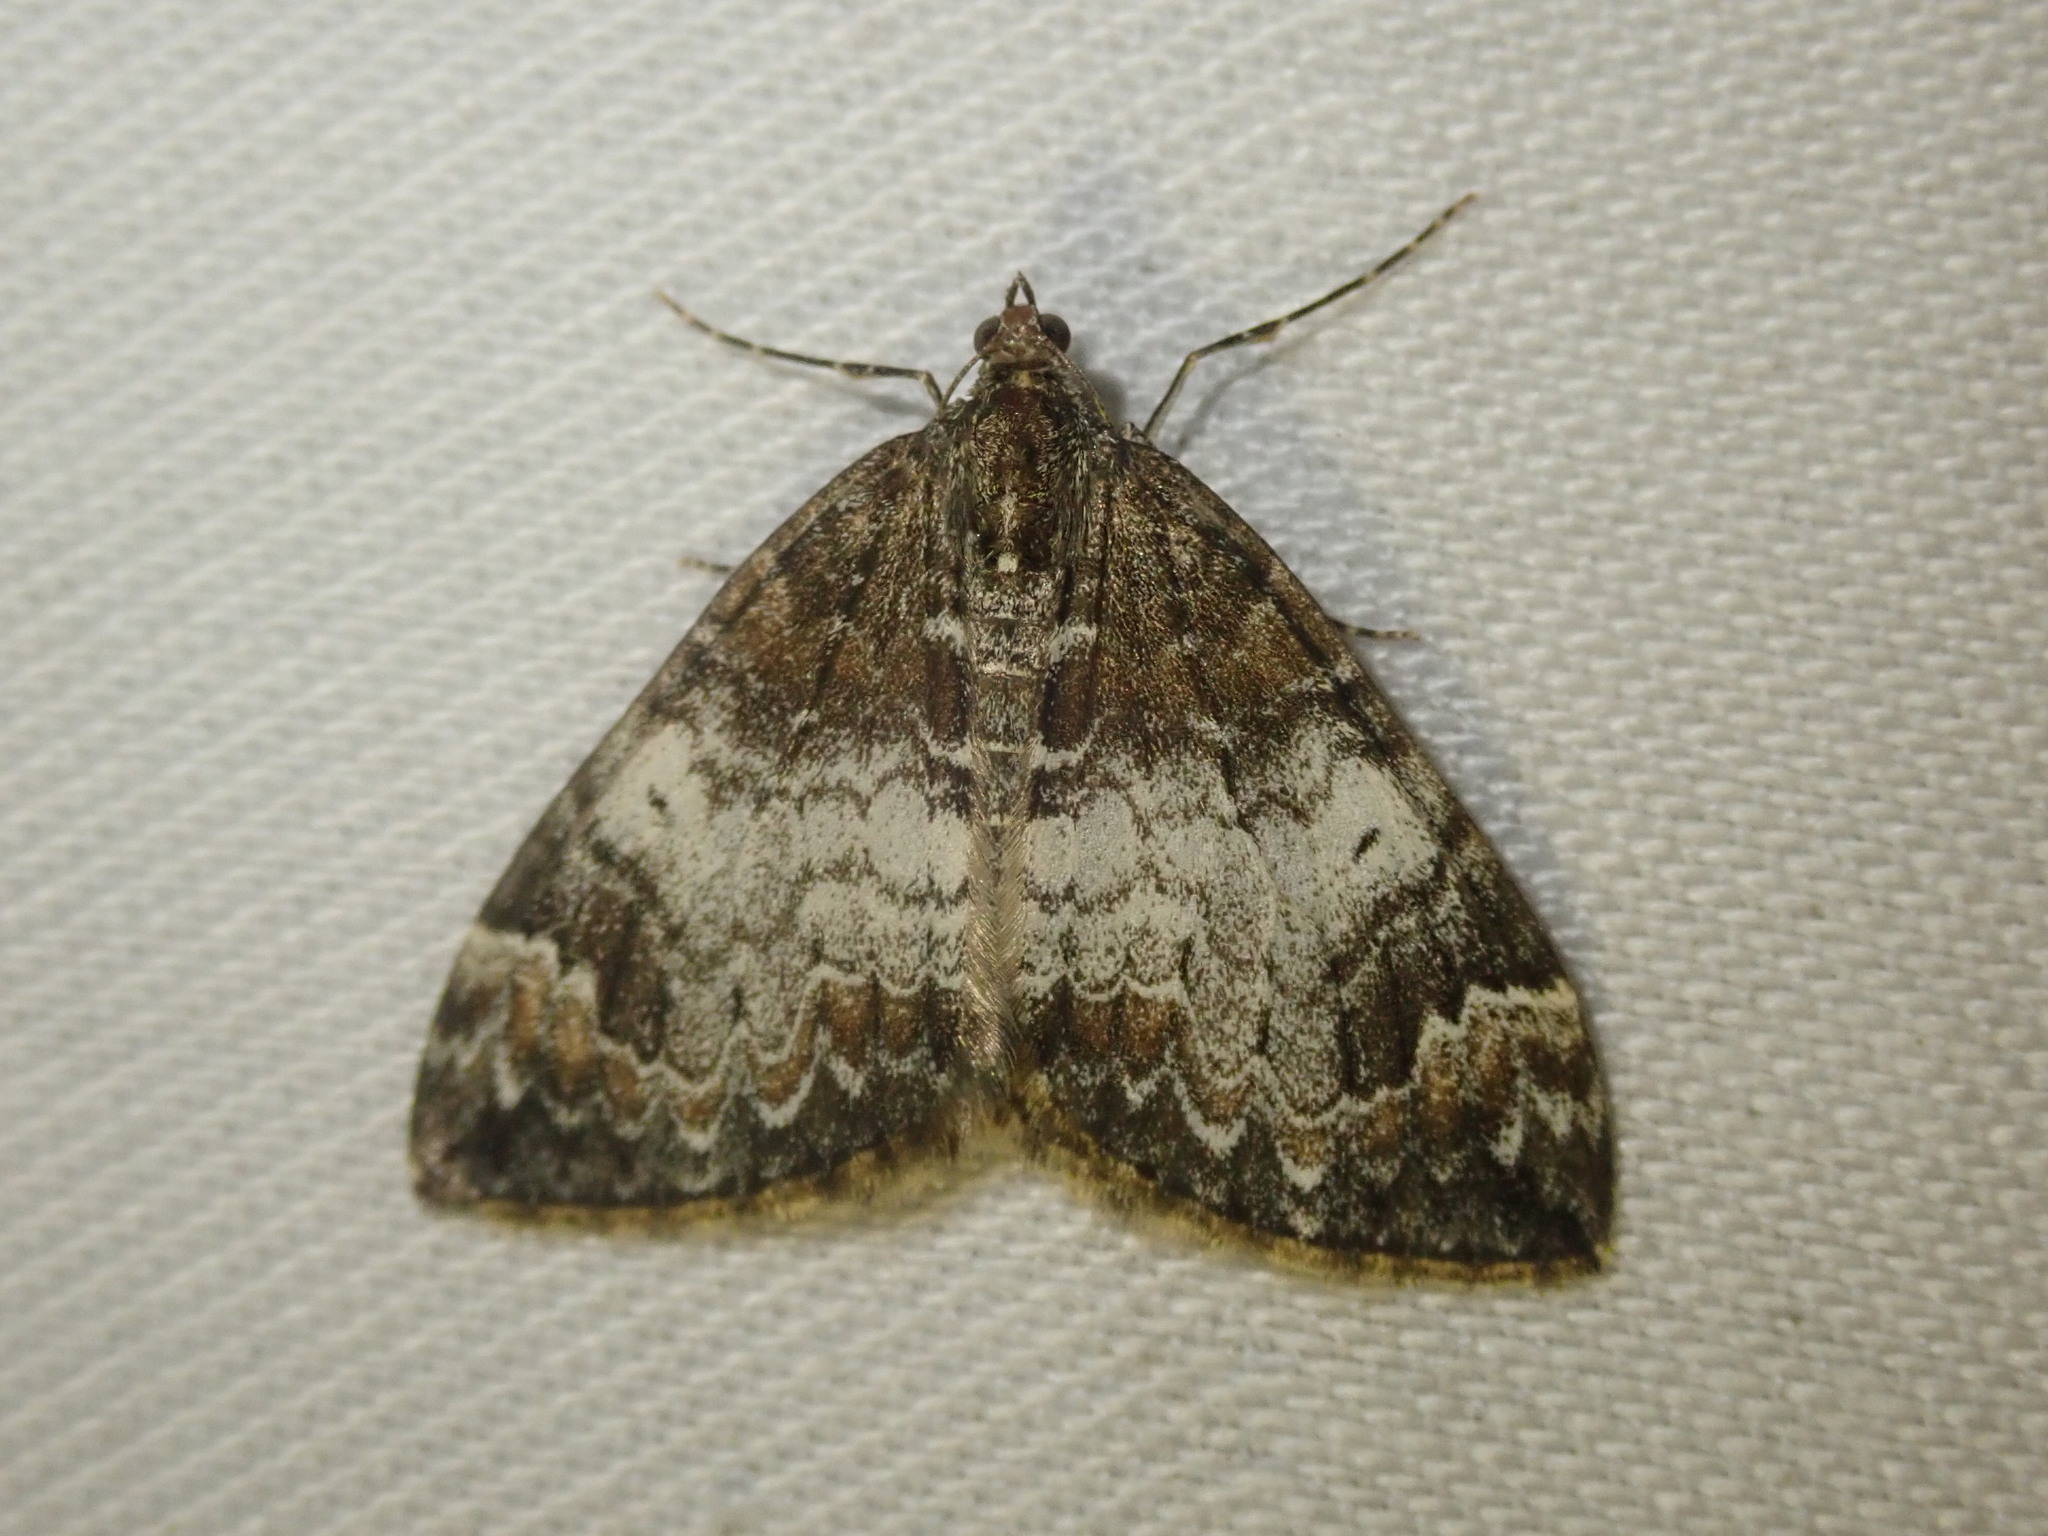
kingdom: Animalia
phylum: Arthropoda
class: Insecta
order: Lepidoptera
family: Geometridae
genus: Dysstroma
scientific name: Dysstroma truncata
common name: Common marbled carpet
